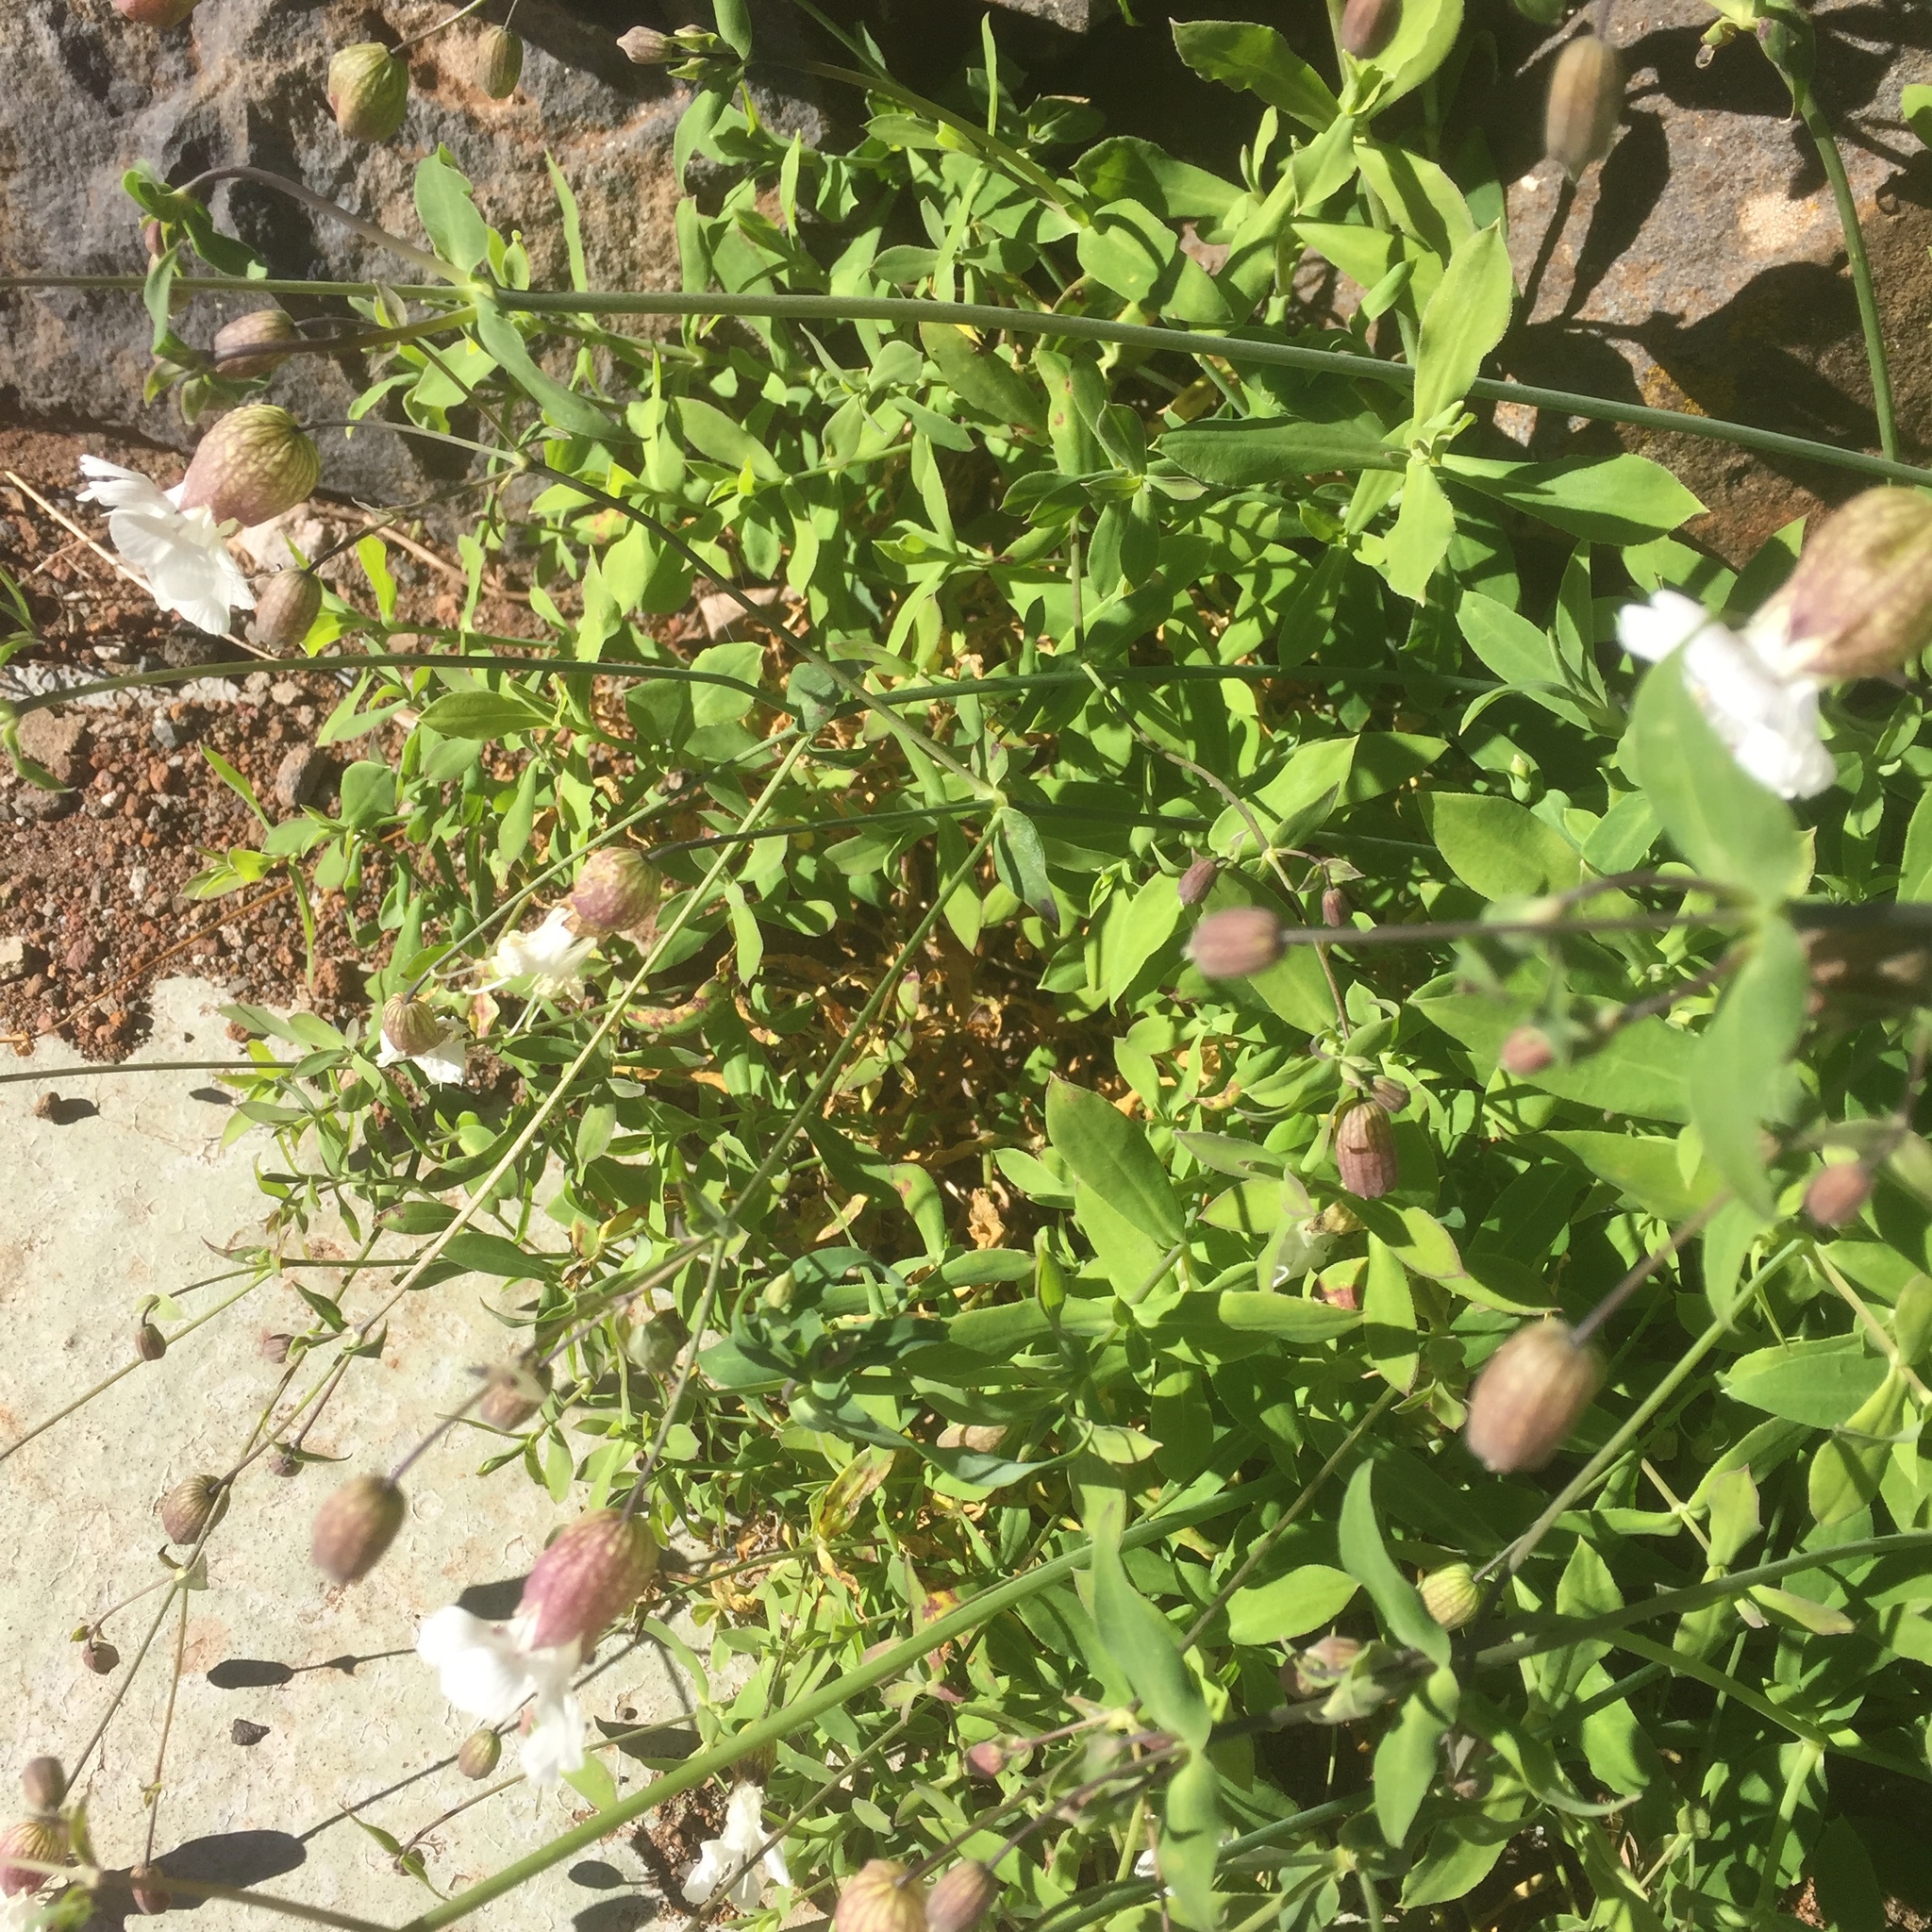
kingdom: Plantae
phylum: Tracheophyta
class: Magnoliopsida
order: Caryophyllales
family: Caryophyllaceae
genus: Silene
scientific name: Silene vulgaris
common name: Bladder campion
